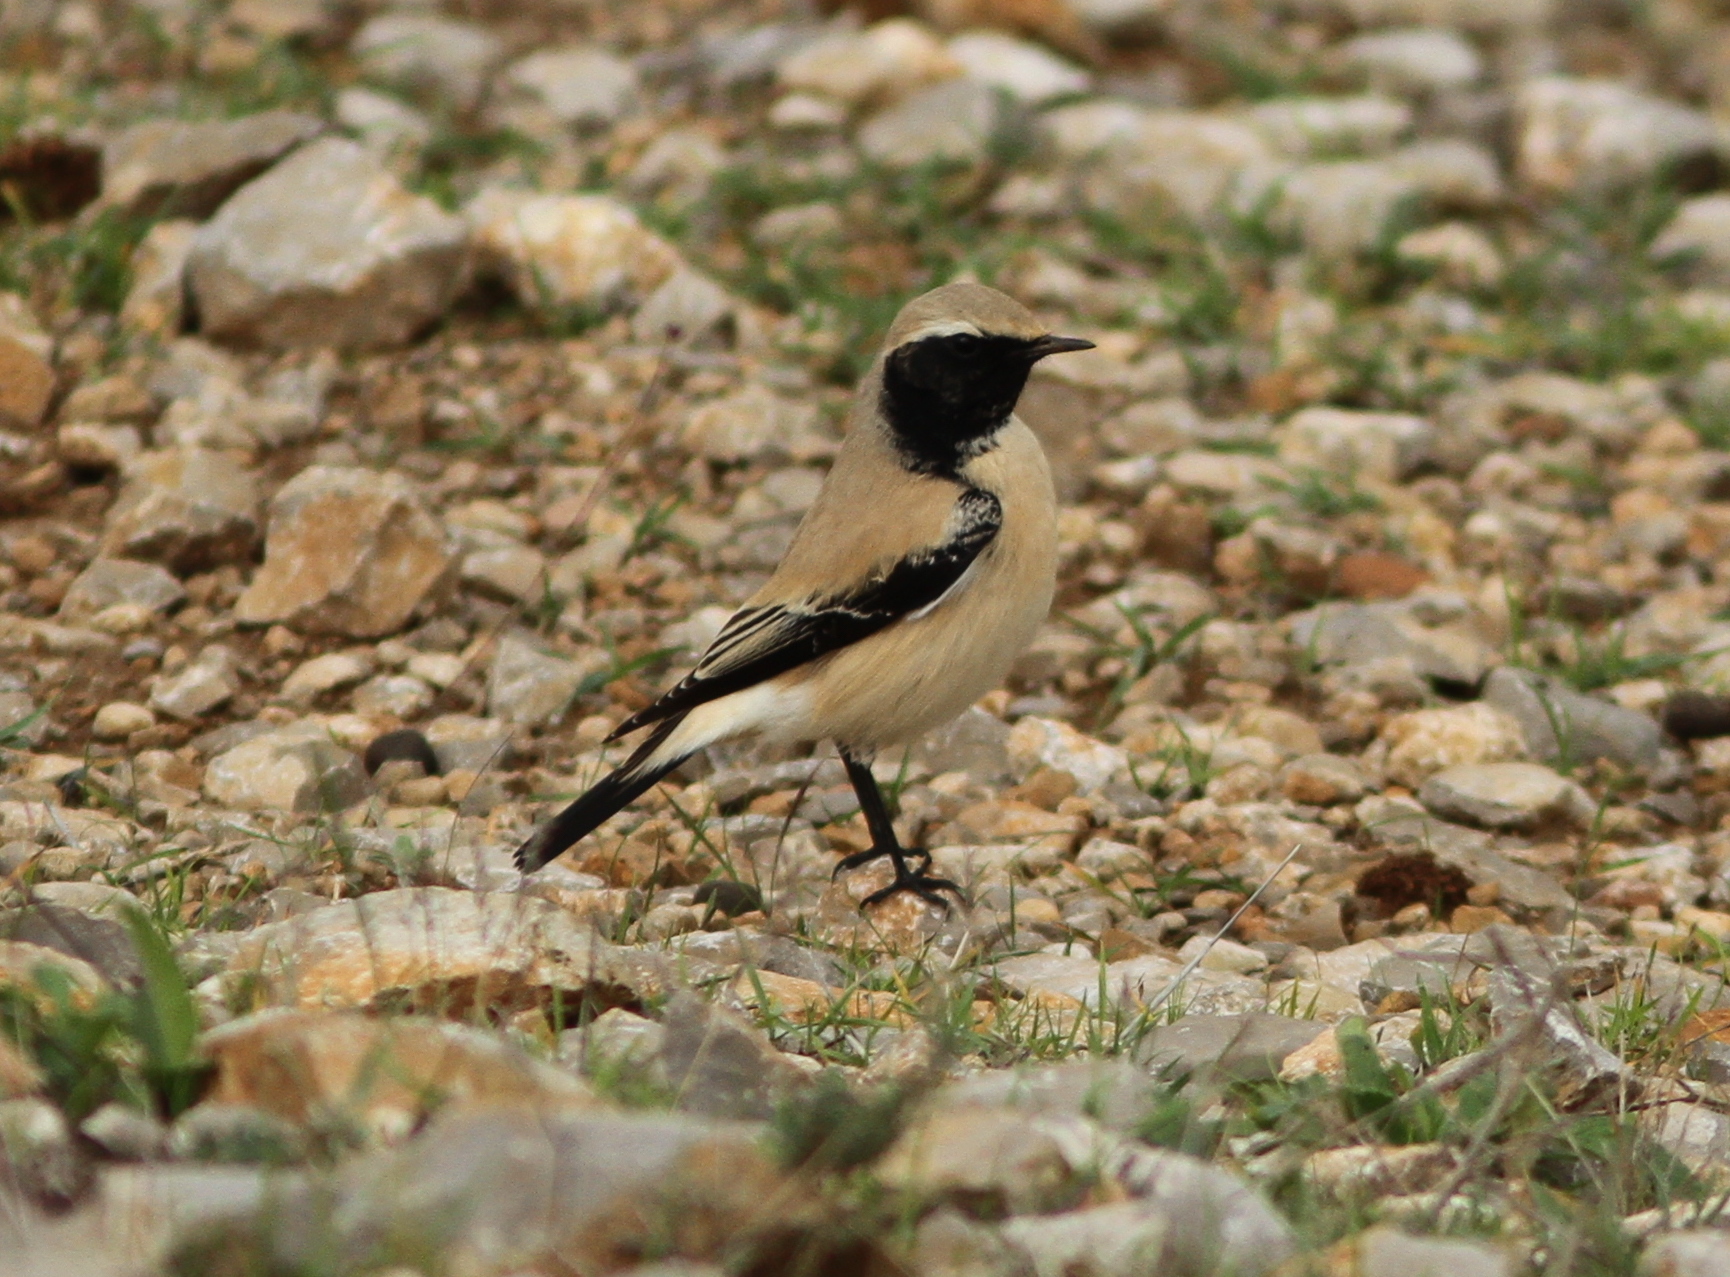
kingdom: Animalia
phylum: Chordata
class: Aves
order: Passeriformes
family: Muscicapidae
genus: Oenanthe
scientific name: Oenanthe deserti
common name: Desert wheatear
